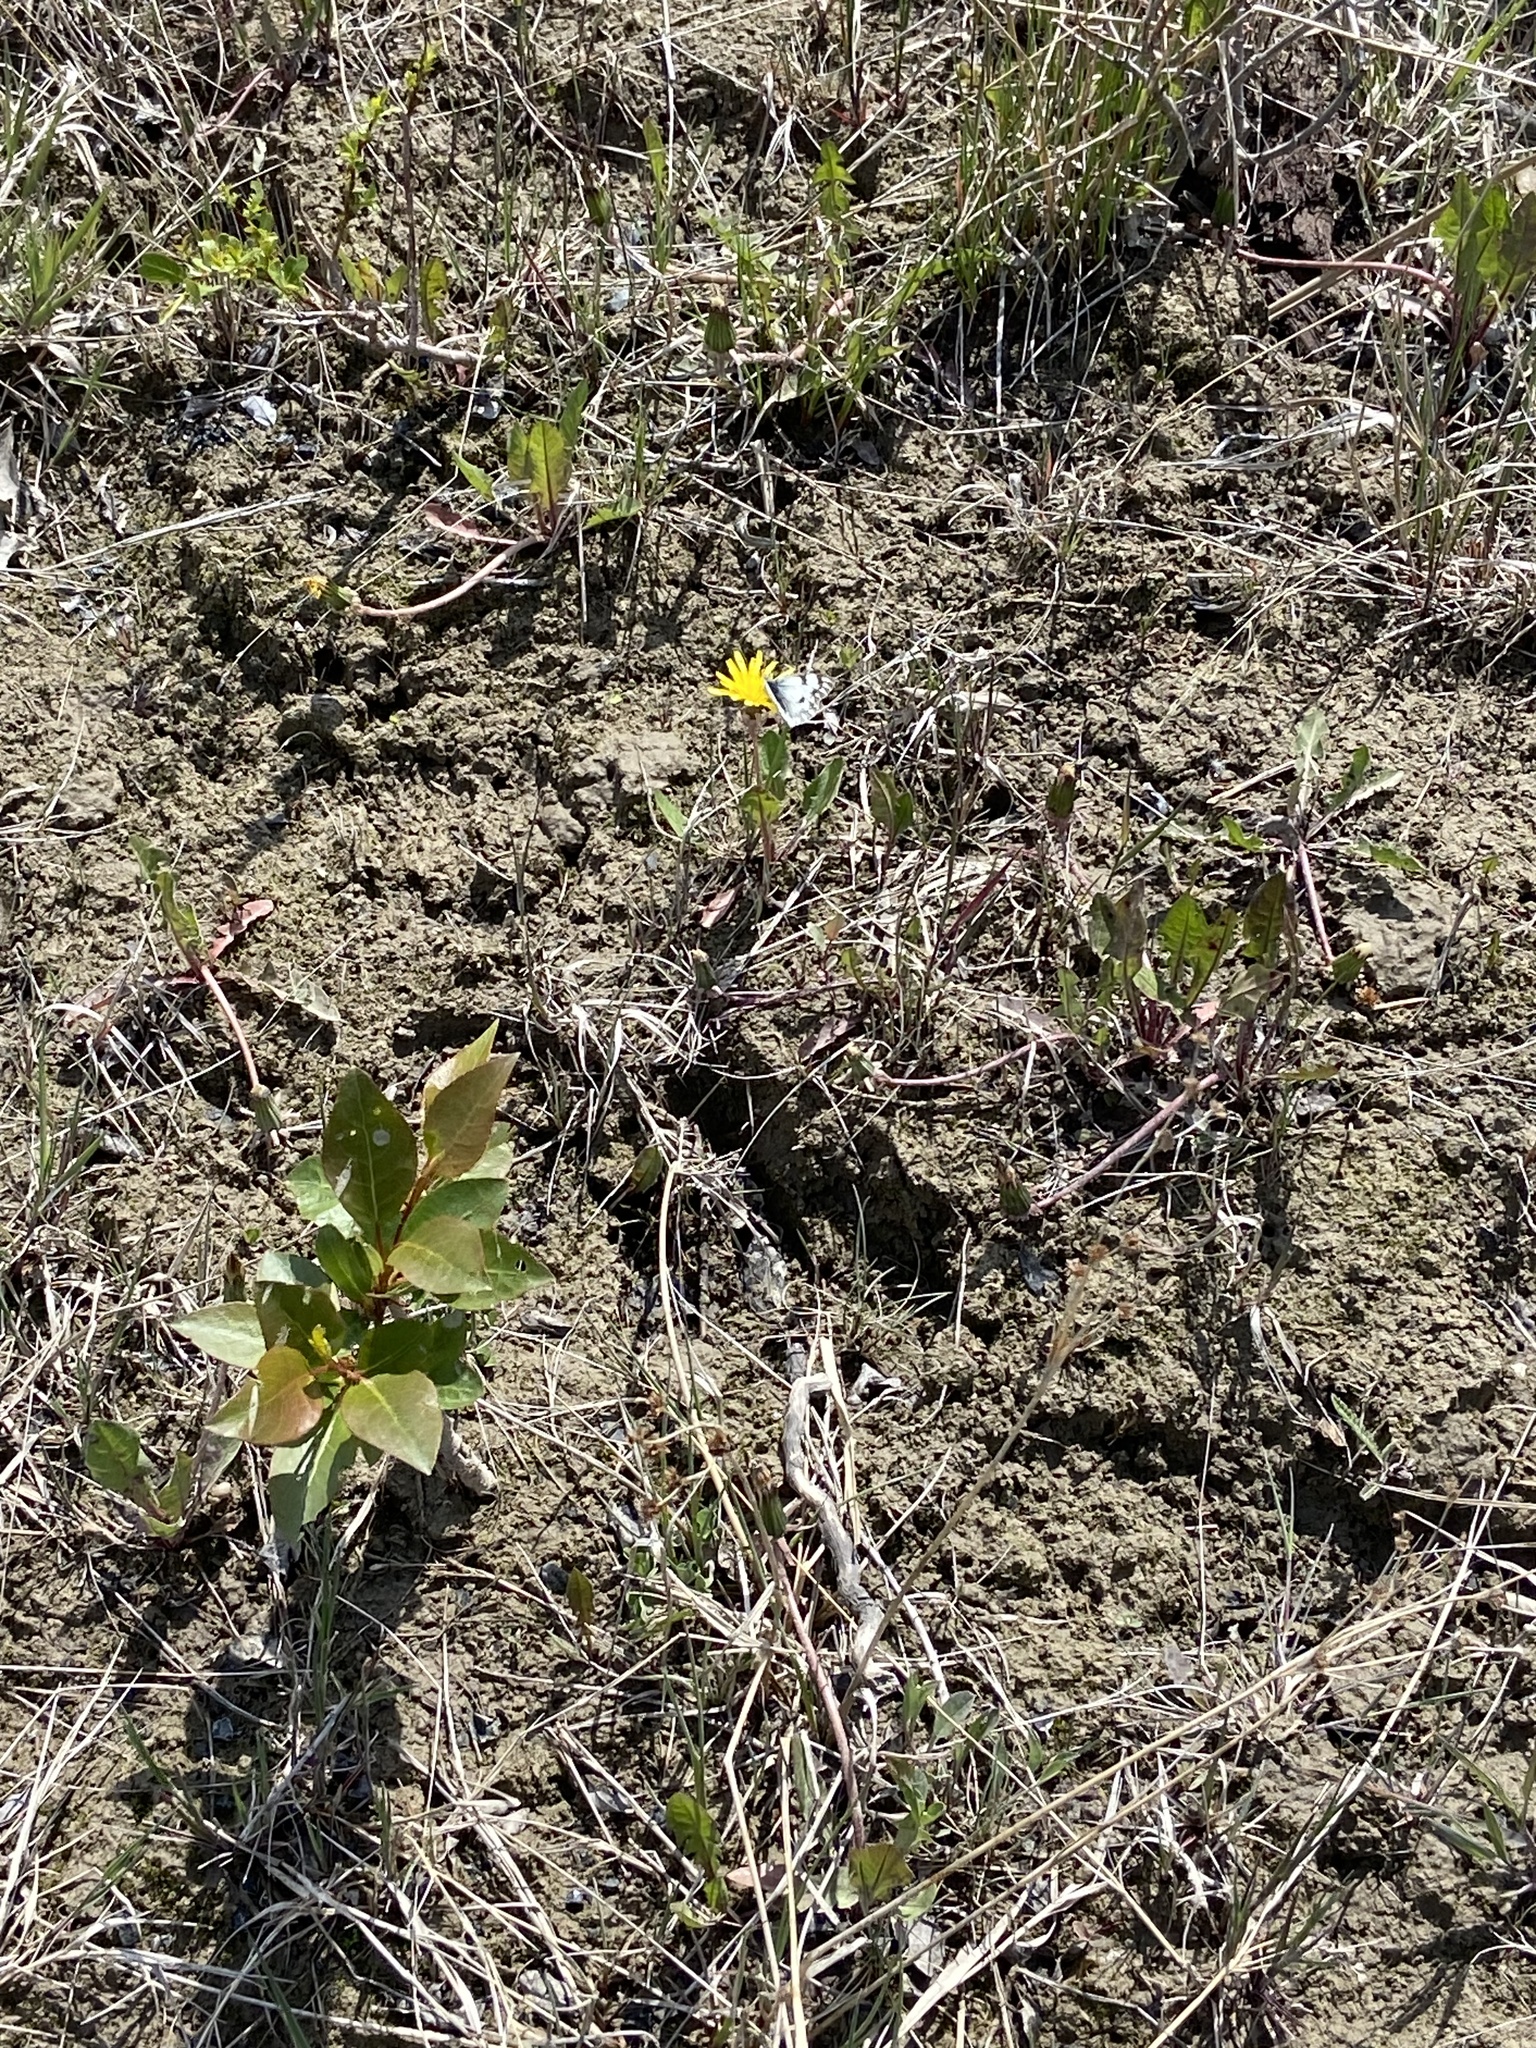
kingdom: Animalia
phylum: Arthropoda
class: Insecta
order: Lepidoptera
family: Pieridae
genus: Pontia
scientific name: Pontia occidentalis
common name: Western white
